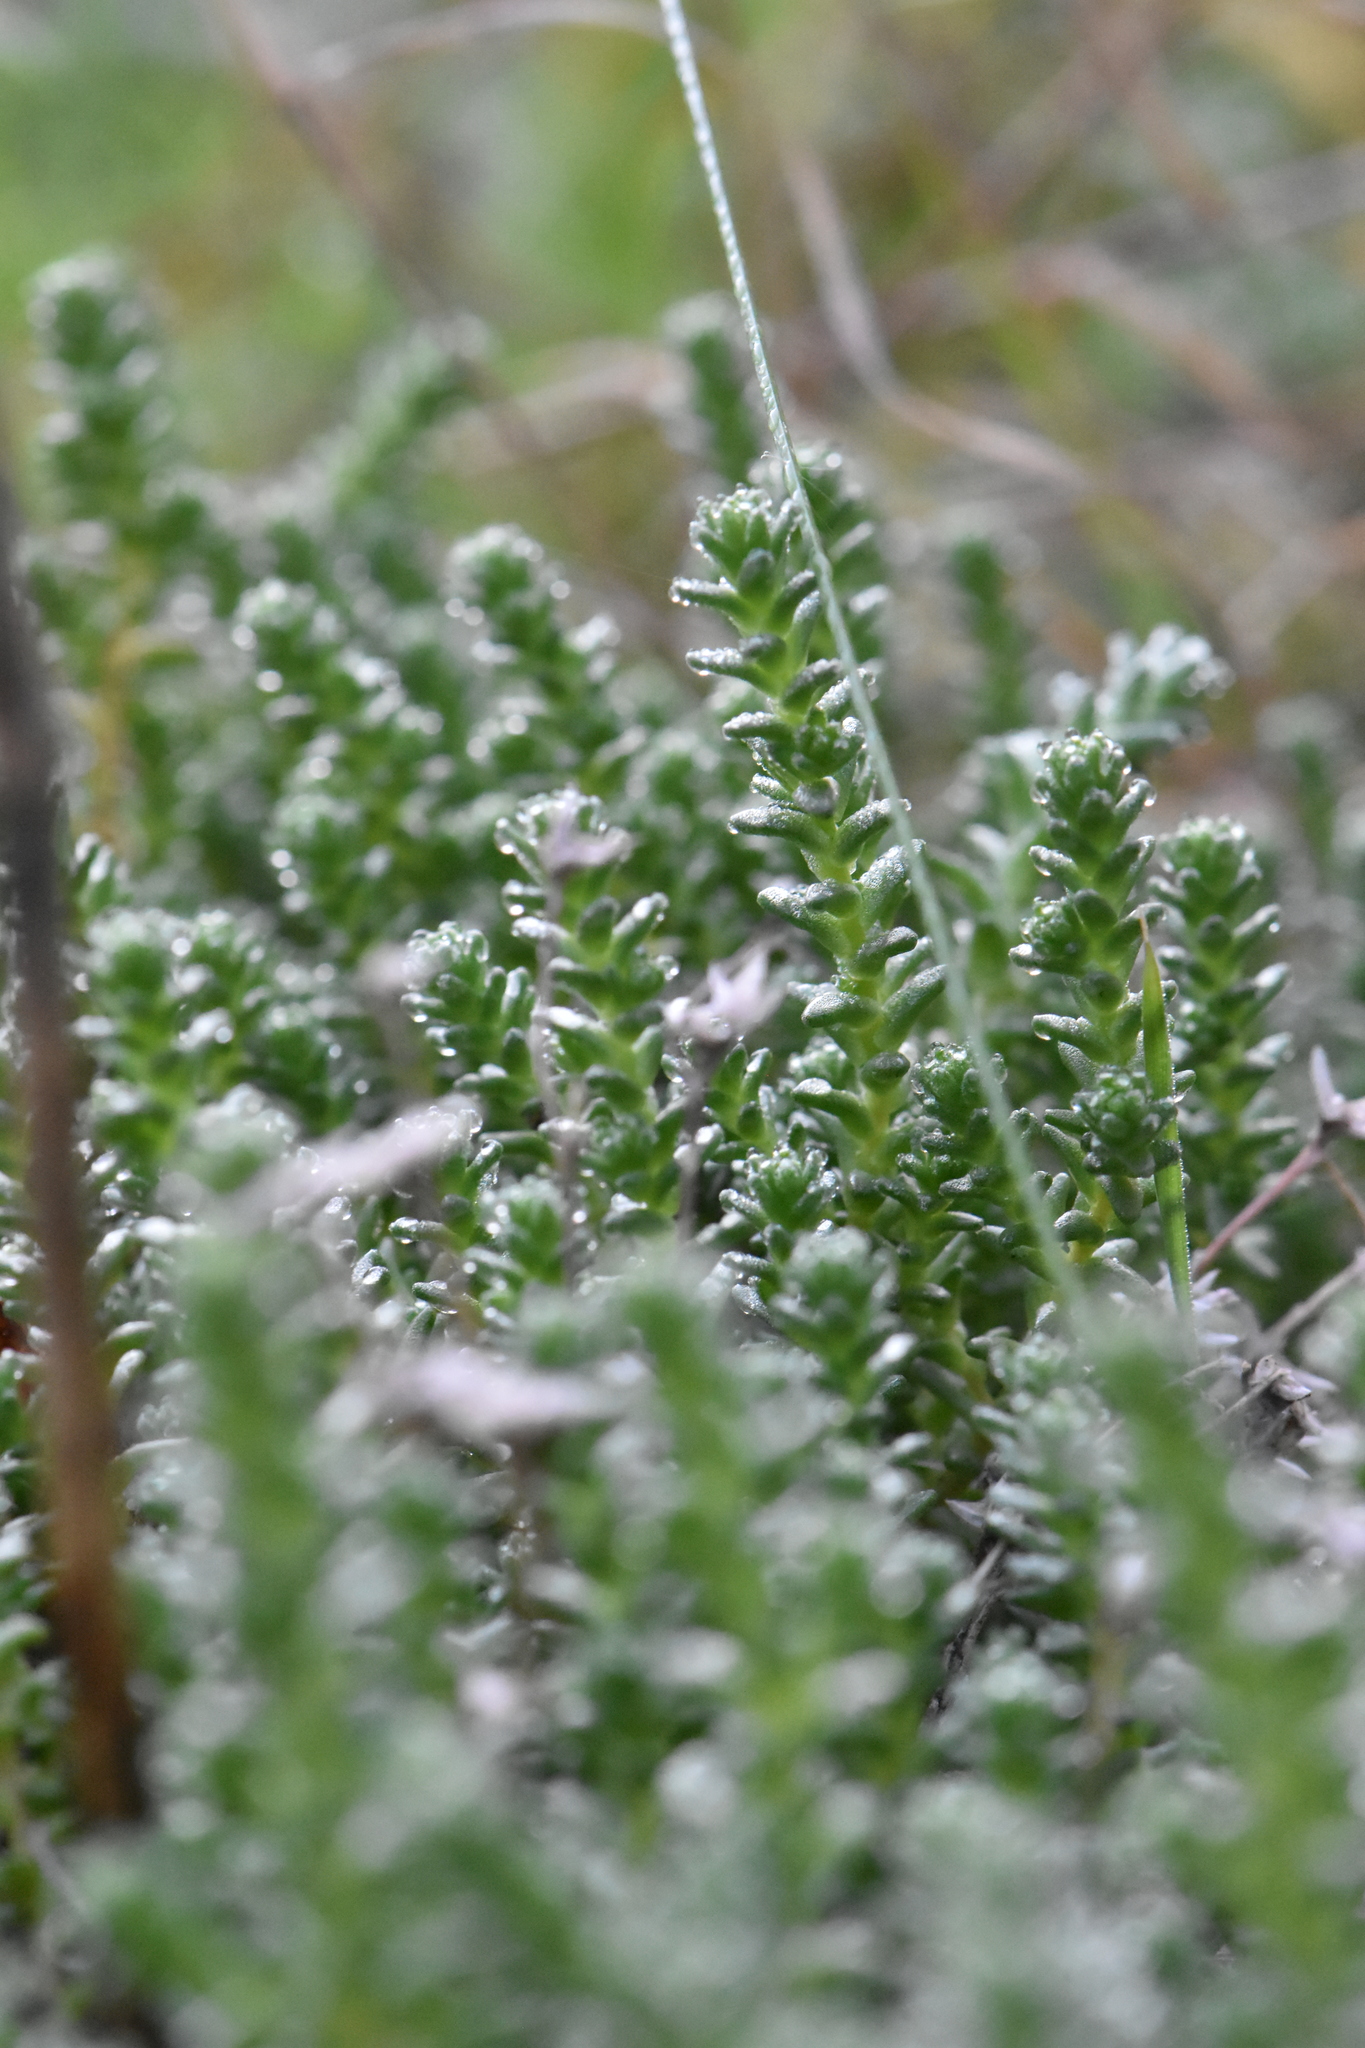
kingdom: Plantae
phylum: Tracheophyta
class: Magnoliopsida
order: Saxifragales
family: Crassulaceae
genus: Sedum
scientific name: Sedum acre
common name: Biting stonecrop
